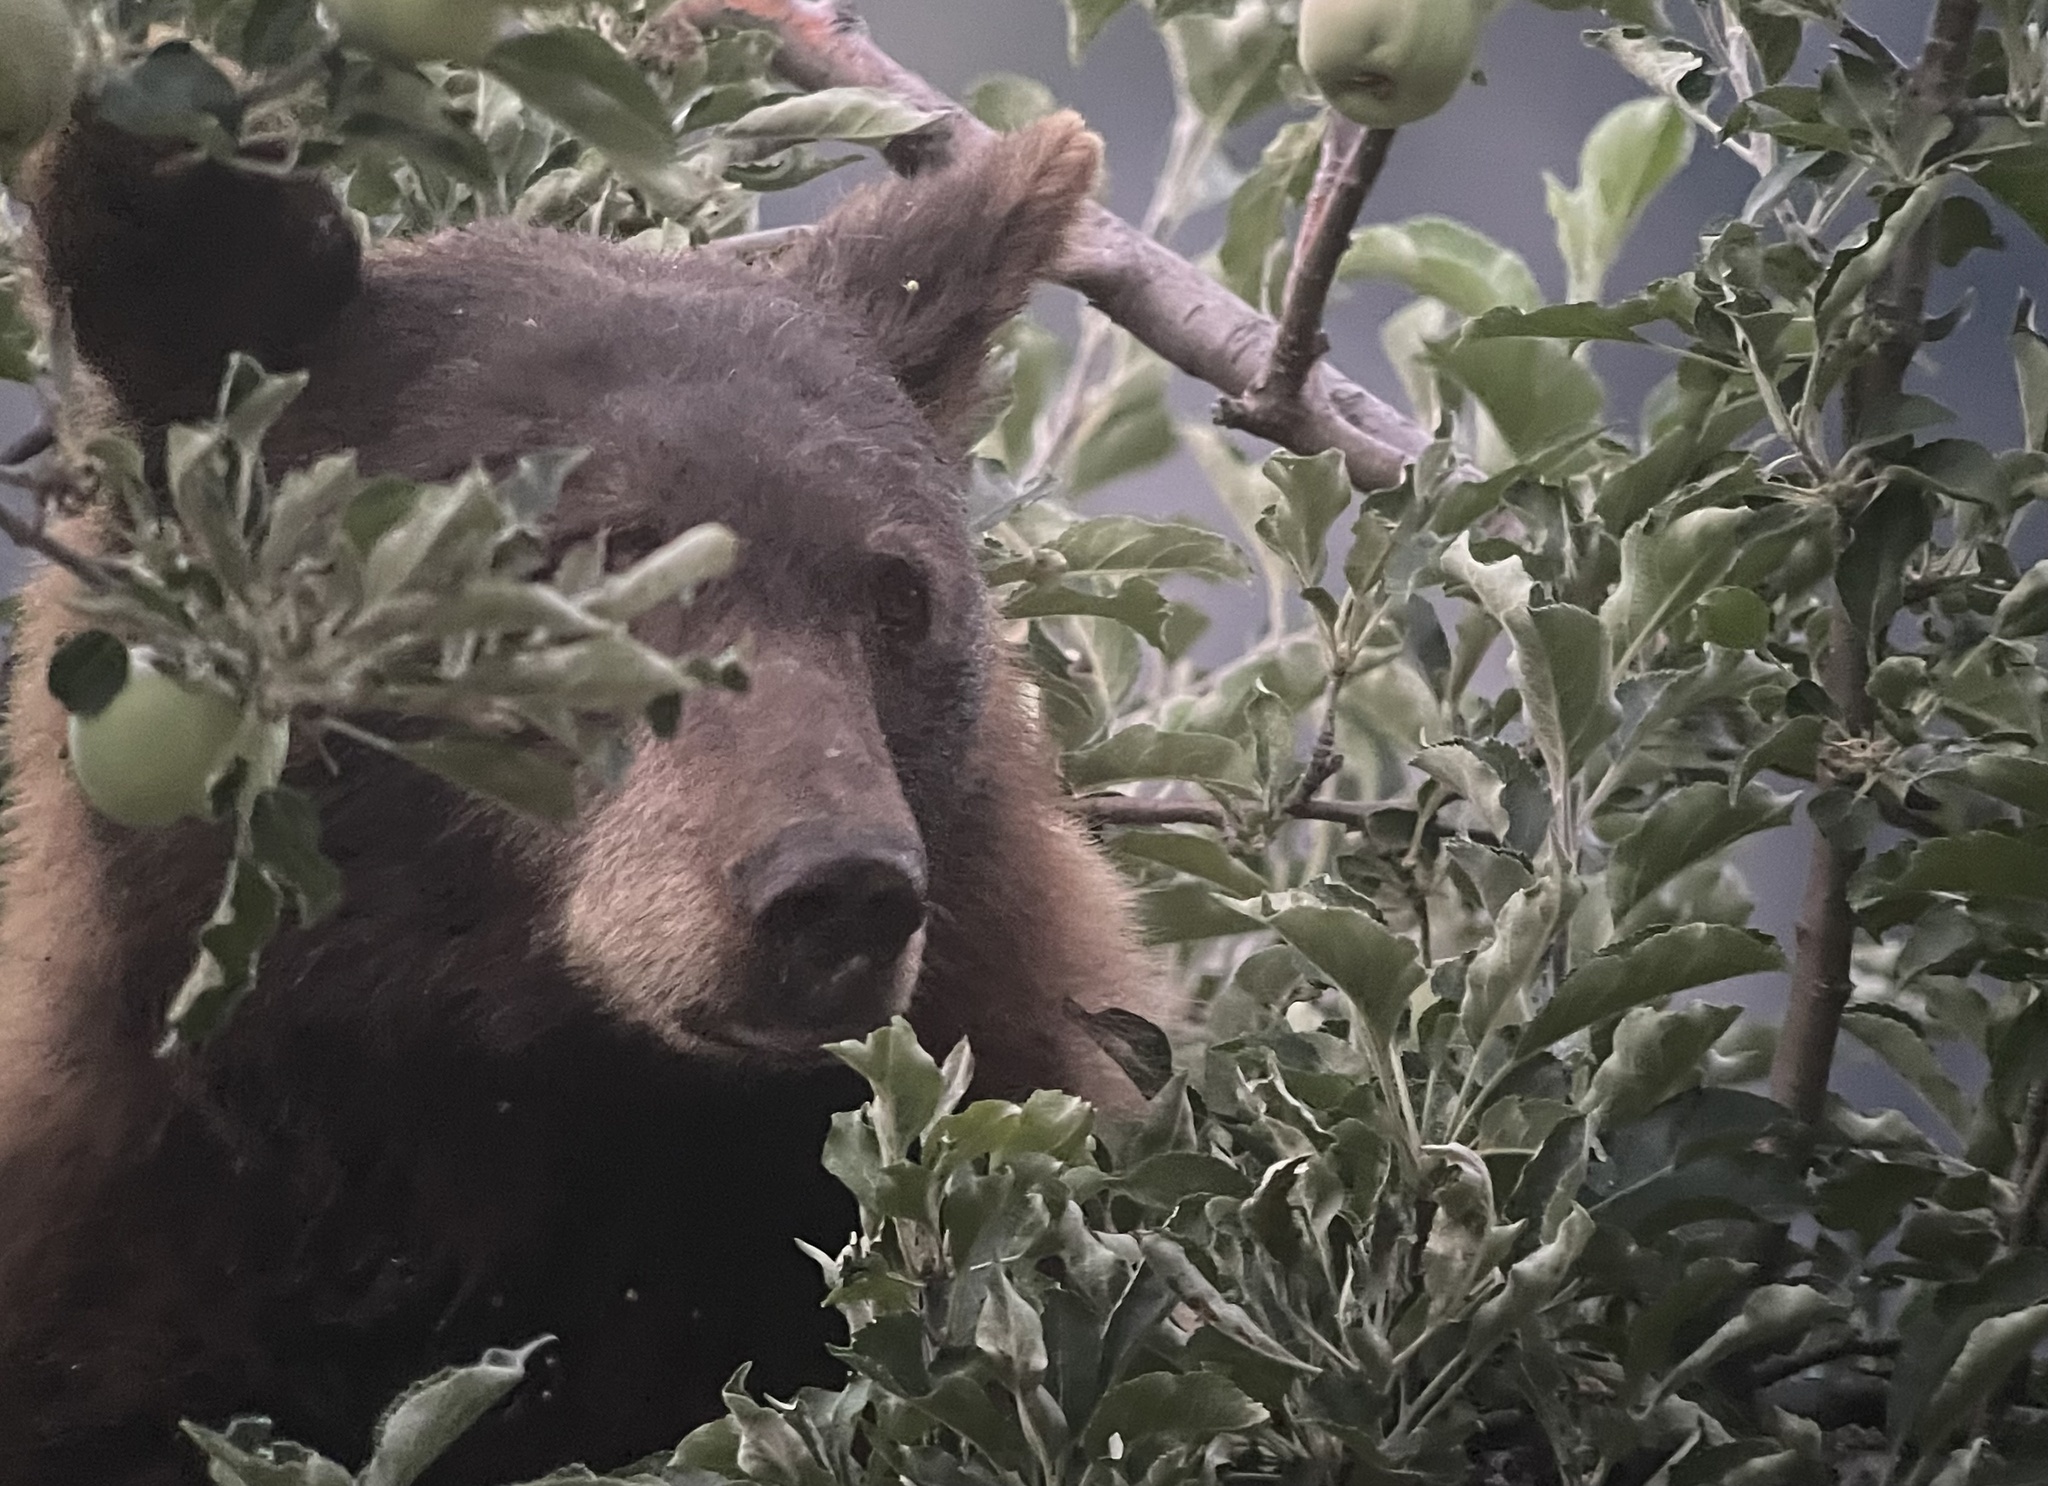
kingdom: Animalia
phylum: Chordata
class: Mammalia
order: Carnivora
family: Ursidae
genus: Ursus
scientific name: Ursus americanus
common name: American black bear
